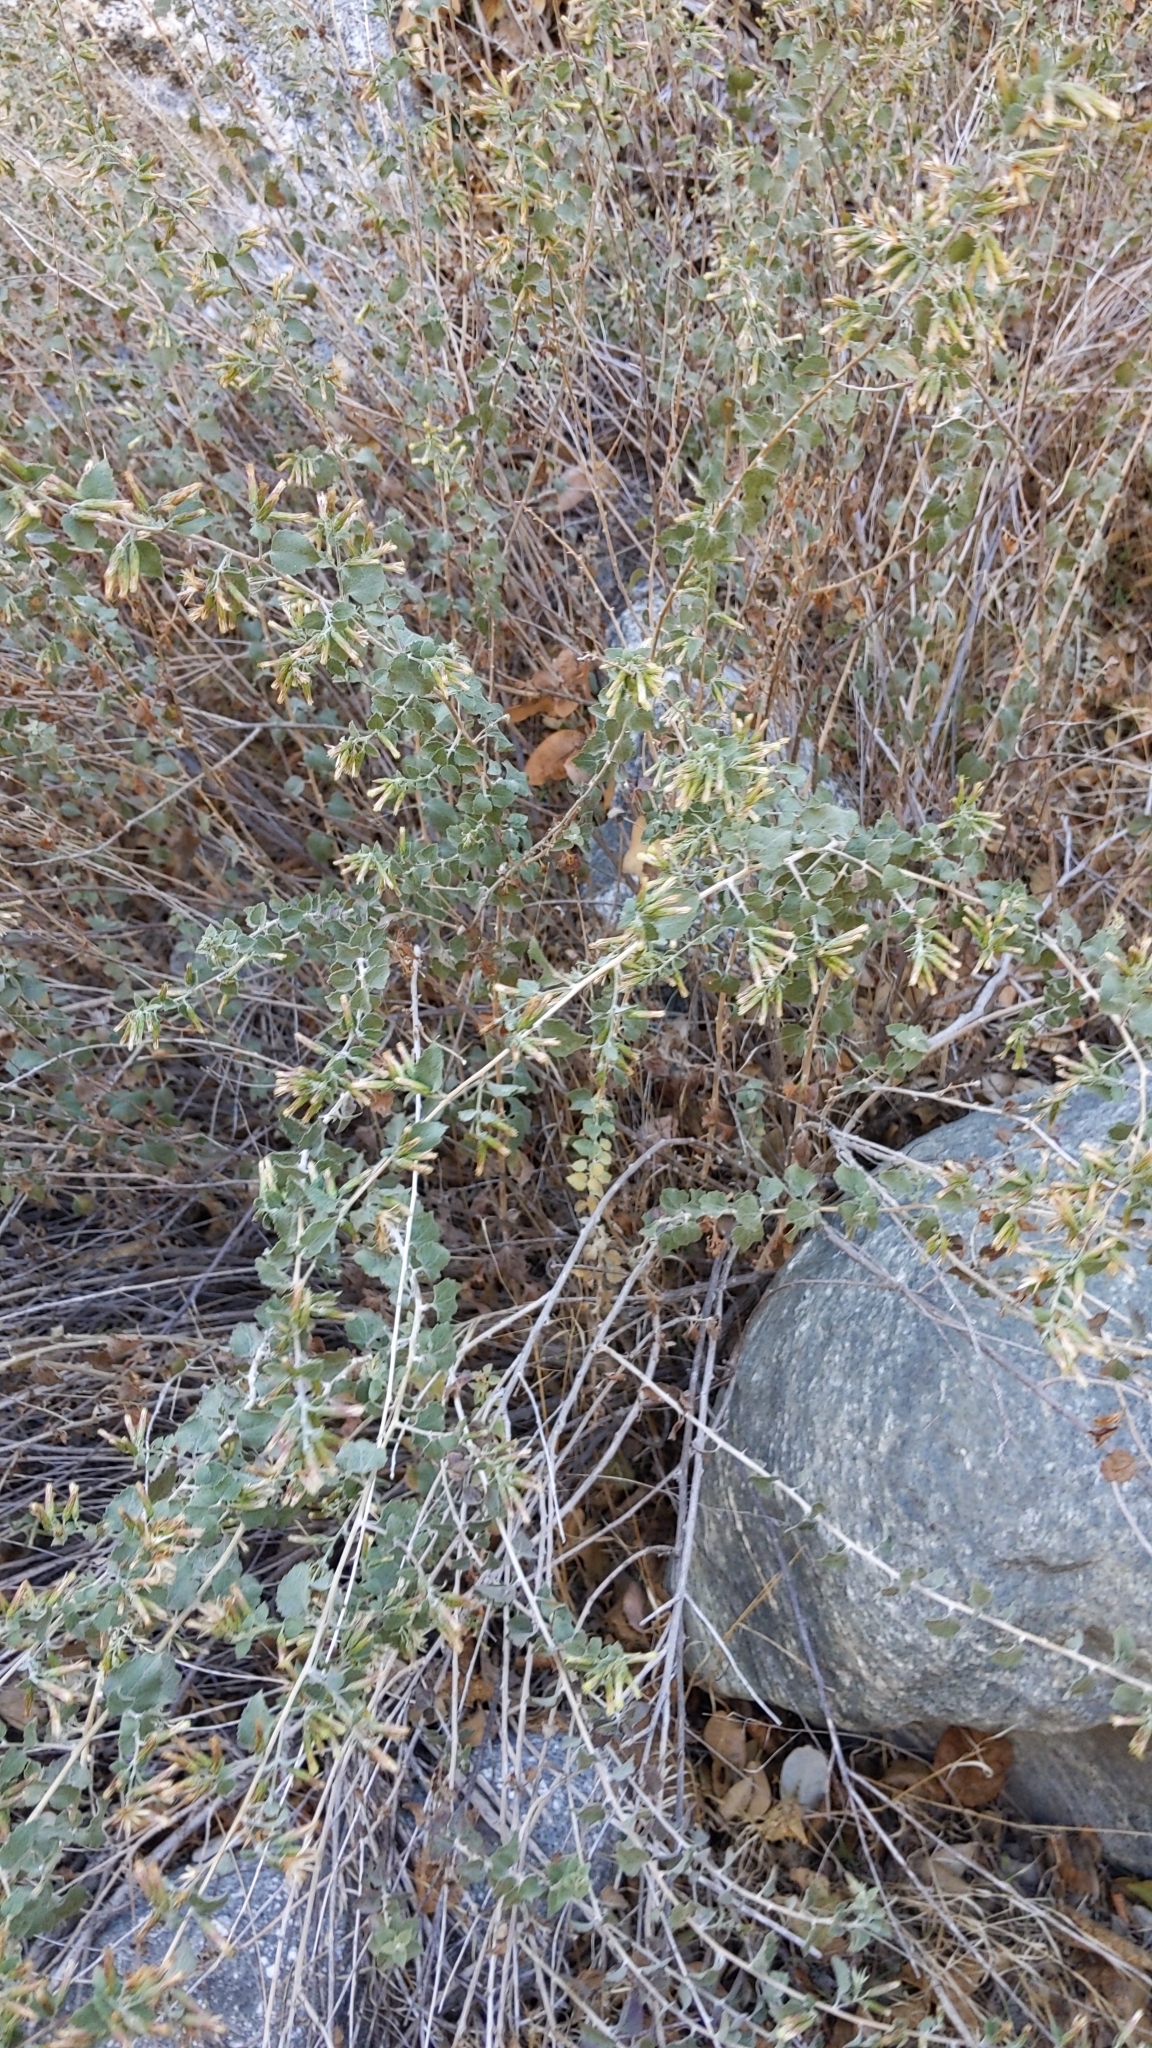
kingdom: Plantae
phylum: Tracheophyta
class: Magnoliopsida
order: Asterales
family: Asteraceae
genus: Brickellia
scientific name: Brickellia californica
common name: California brickellbush
